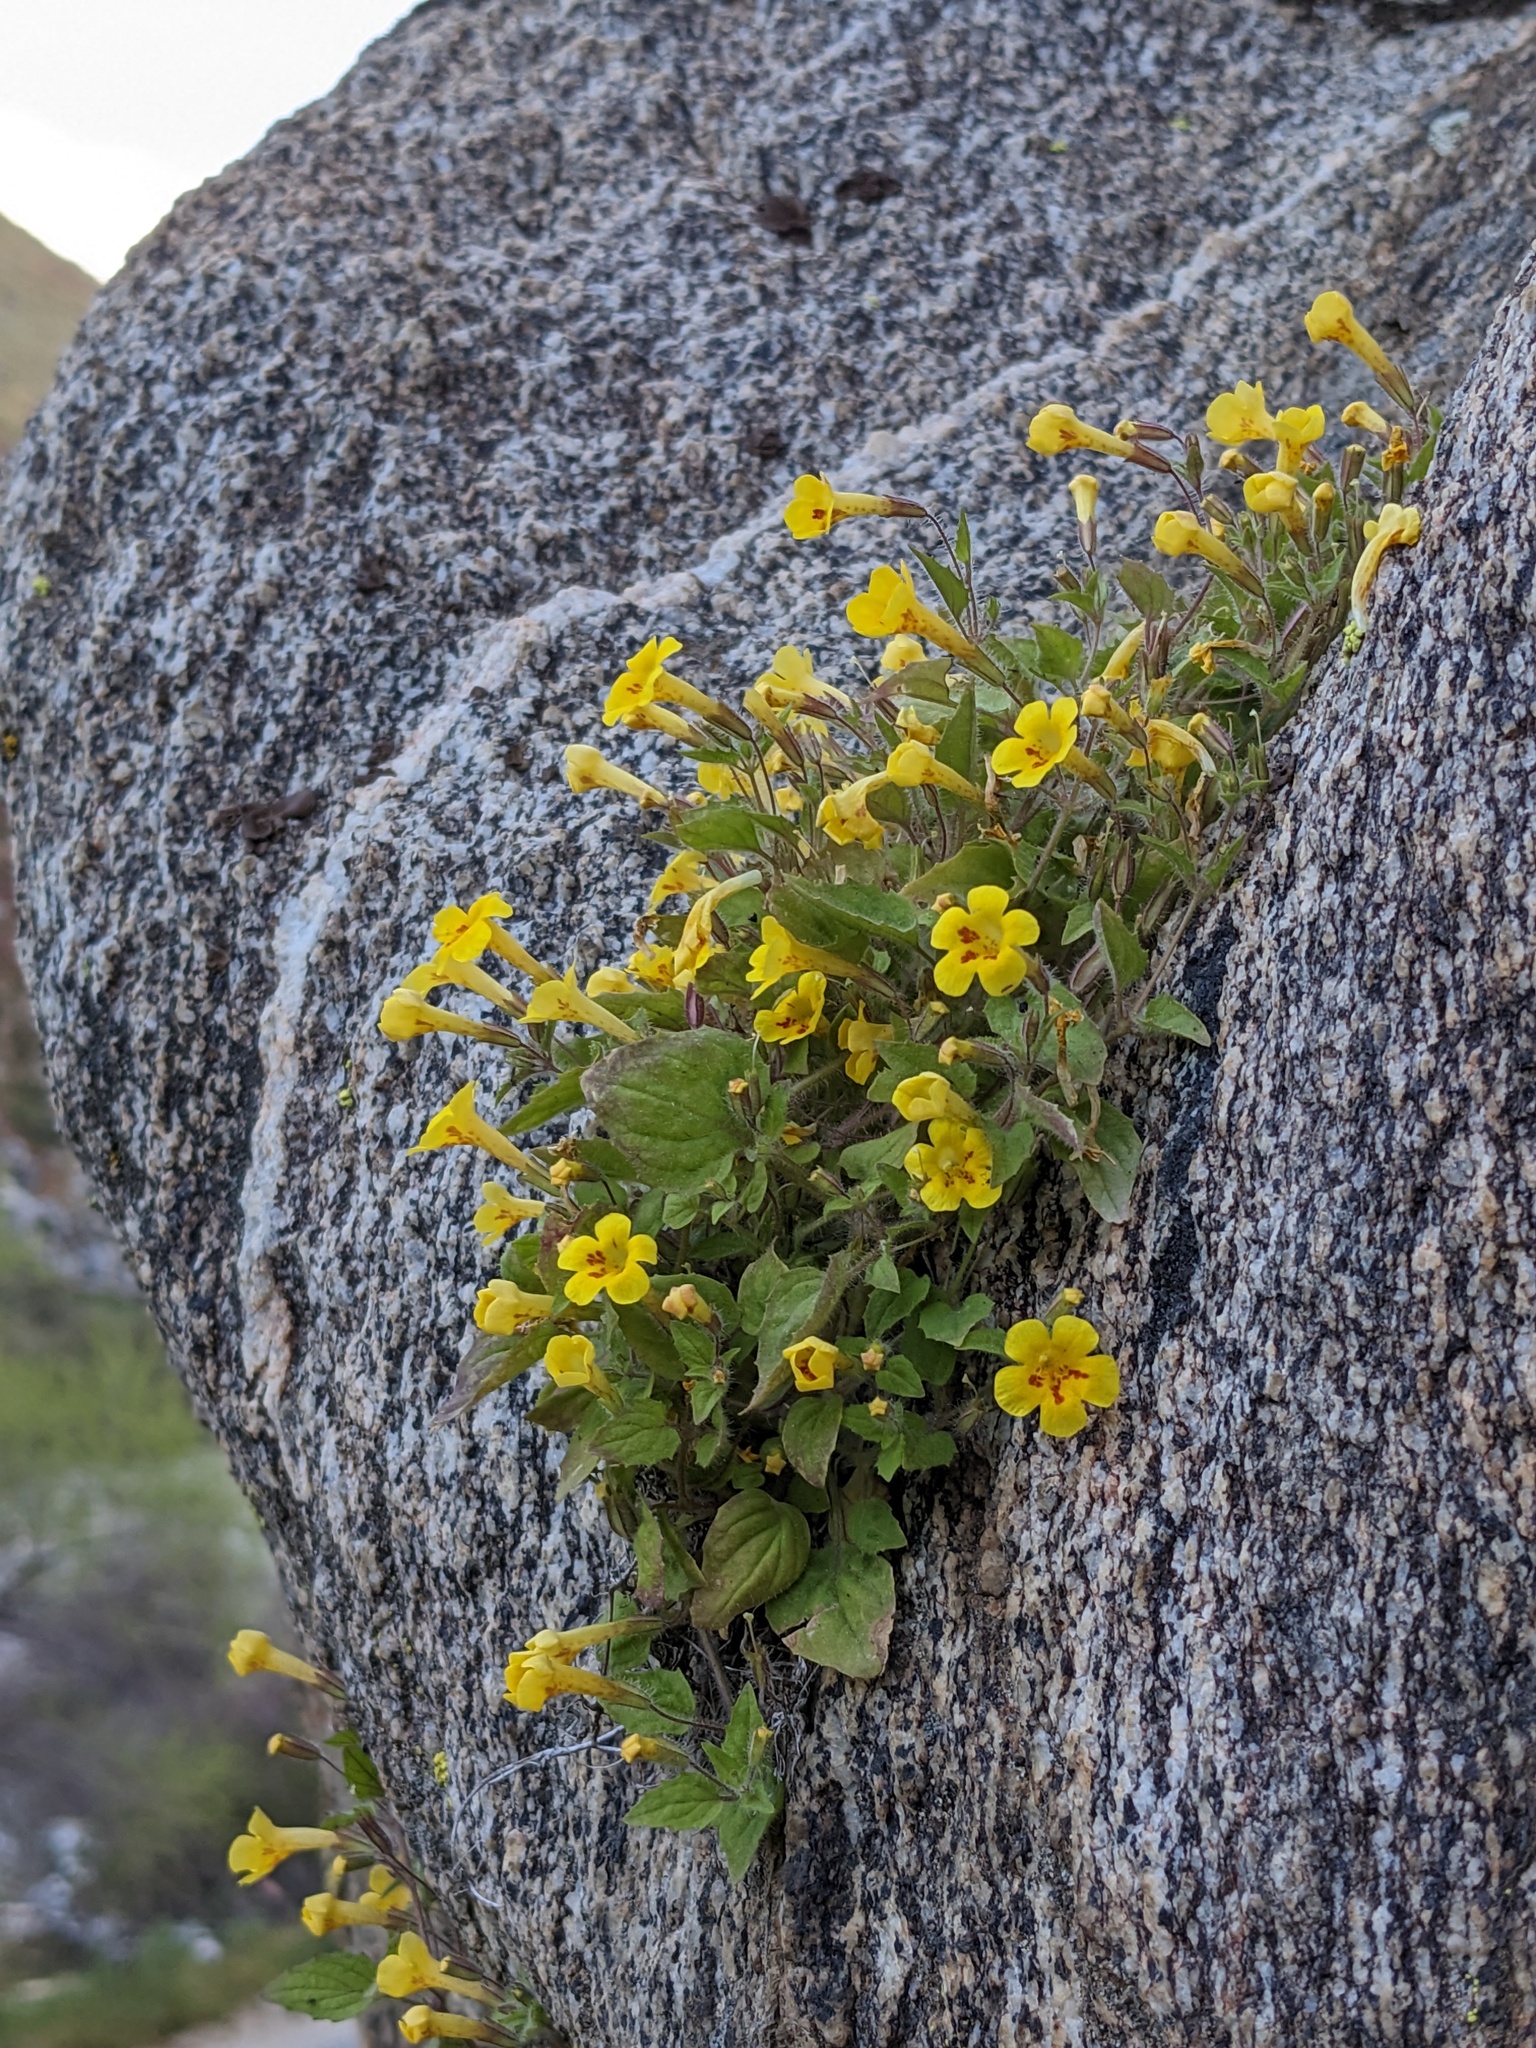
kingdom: Plantae
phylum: Tracheophyta
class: Magnoliopsida
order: Lamiales
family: Phrymaceae
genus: Erythranthe
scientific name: Erythranthe geniculata
